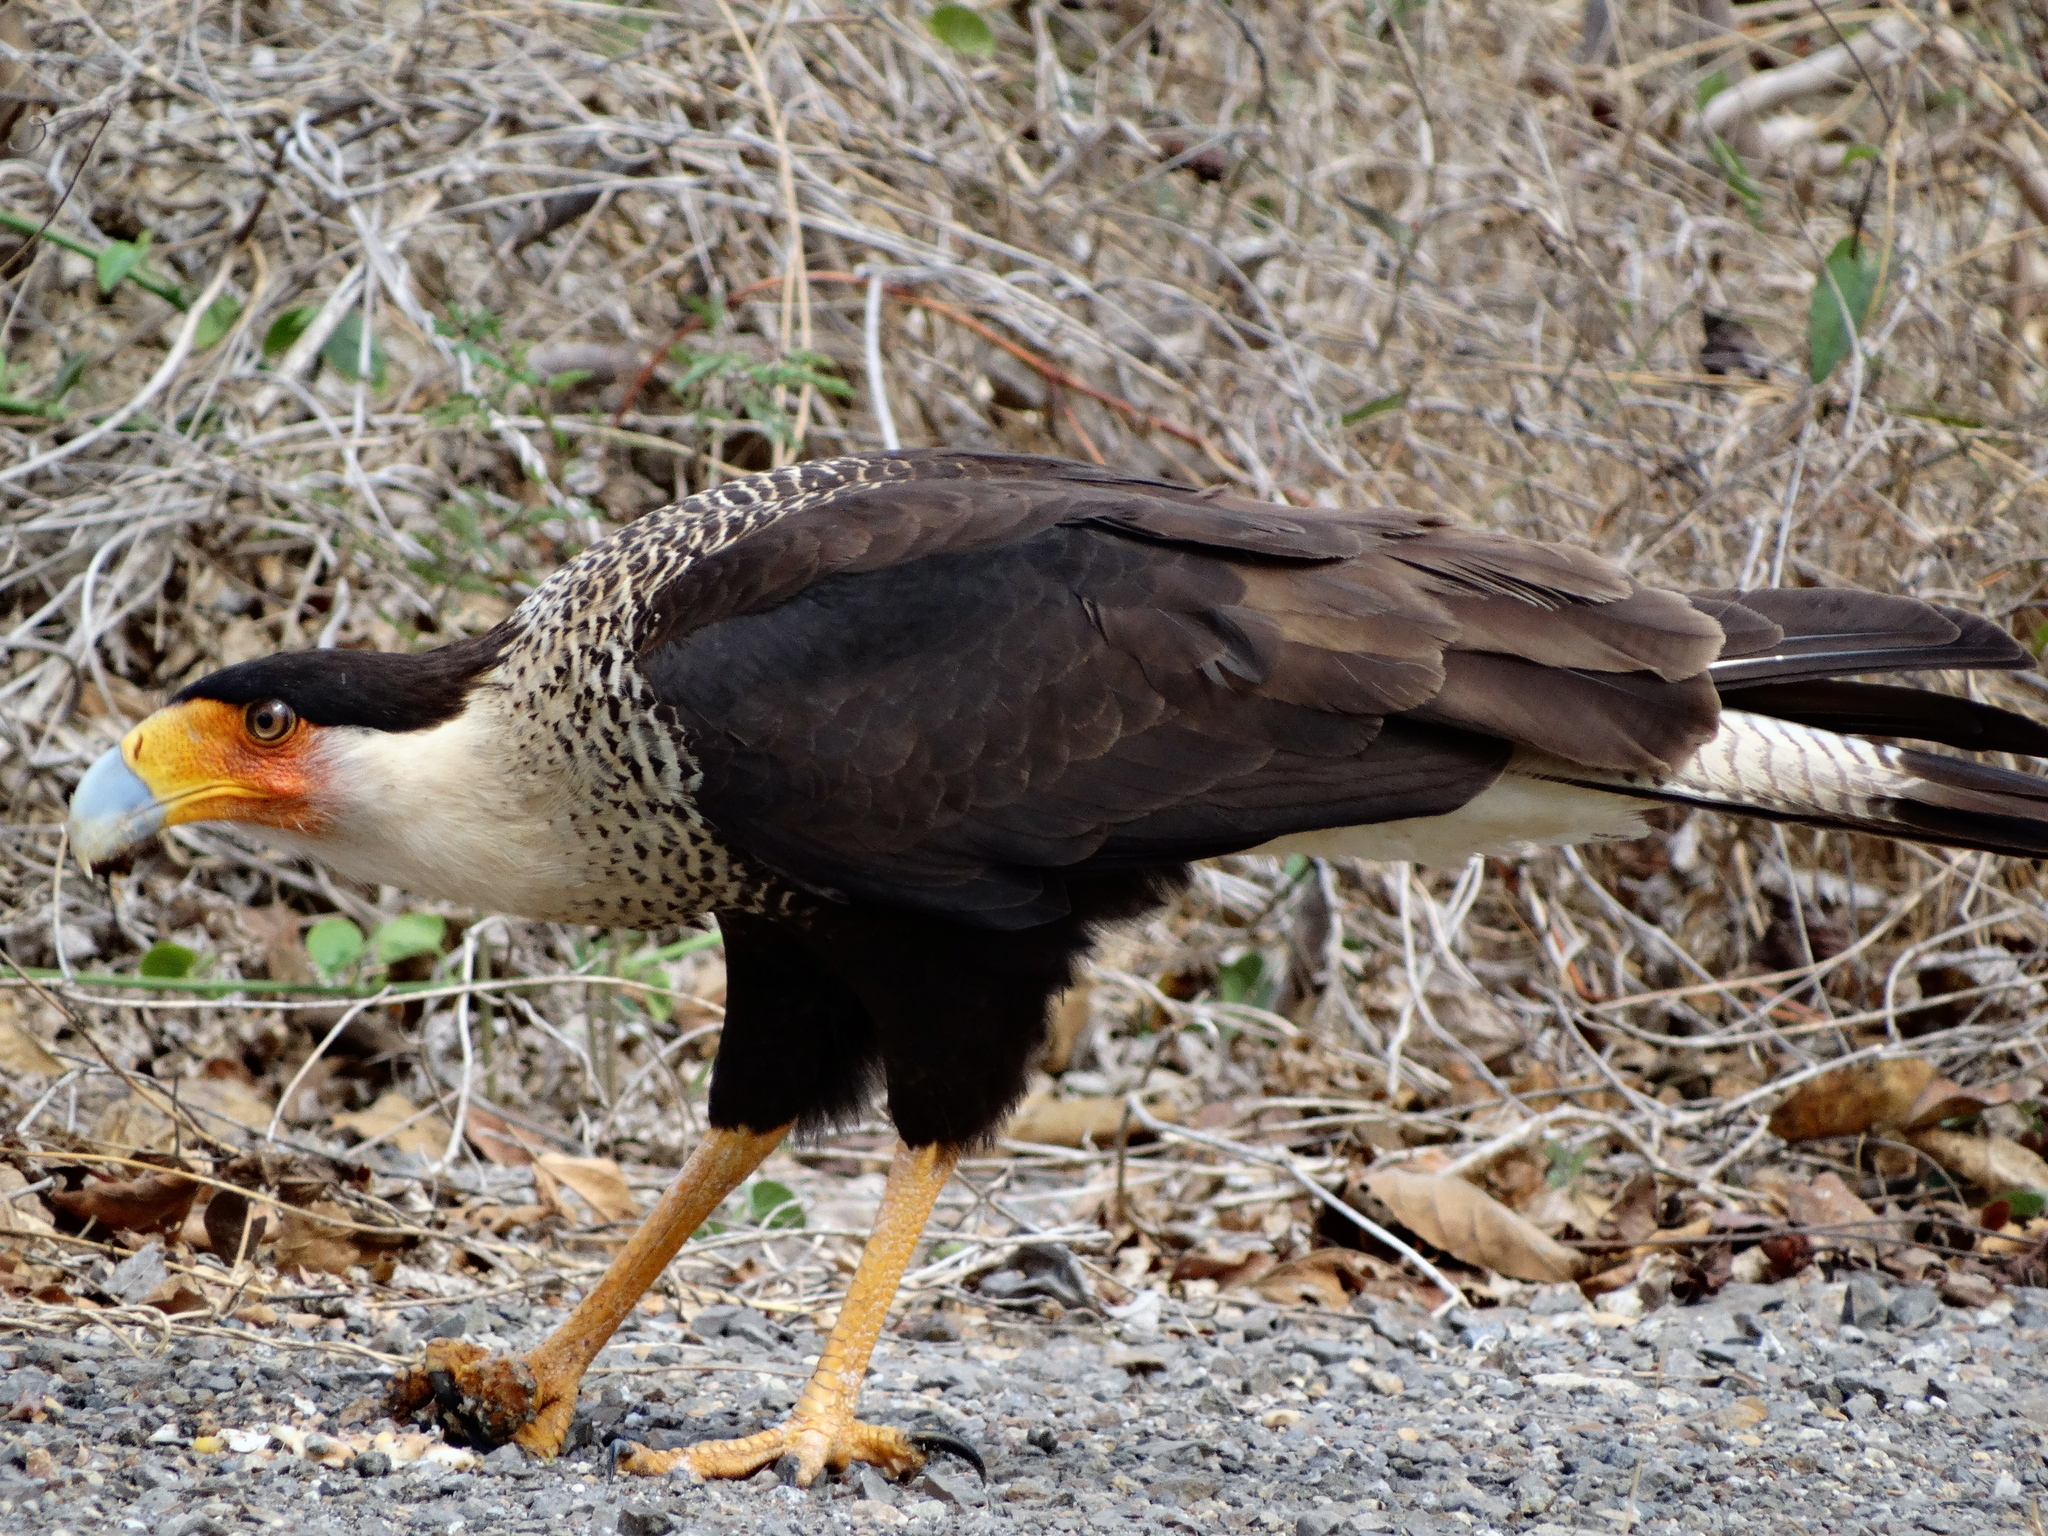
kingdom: Animalia
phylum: Chordata
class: Aves
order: Falconiformes
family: Falconidae
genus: Caracara
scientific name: Caracara plancus
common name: Southern caracara
